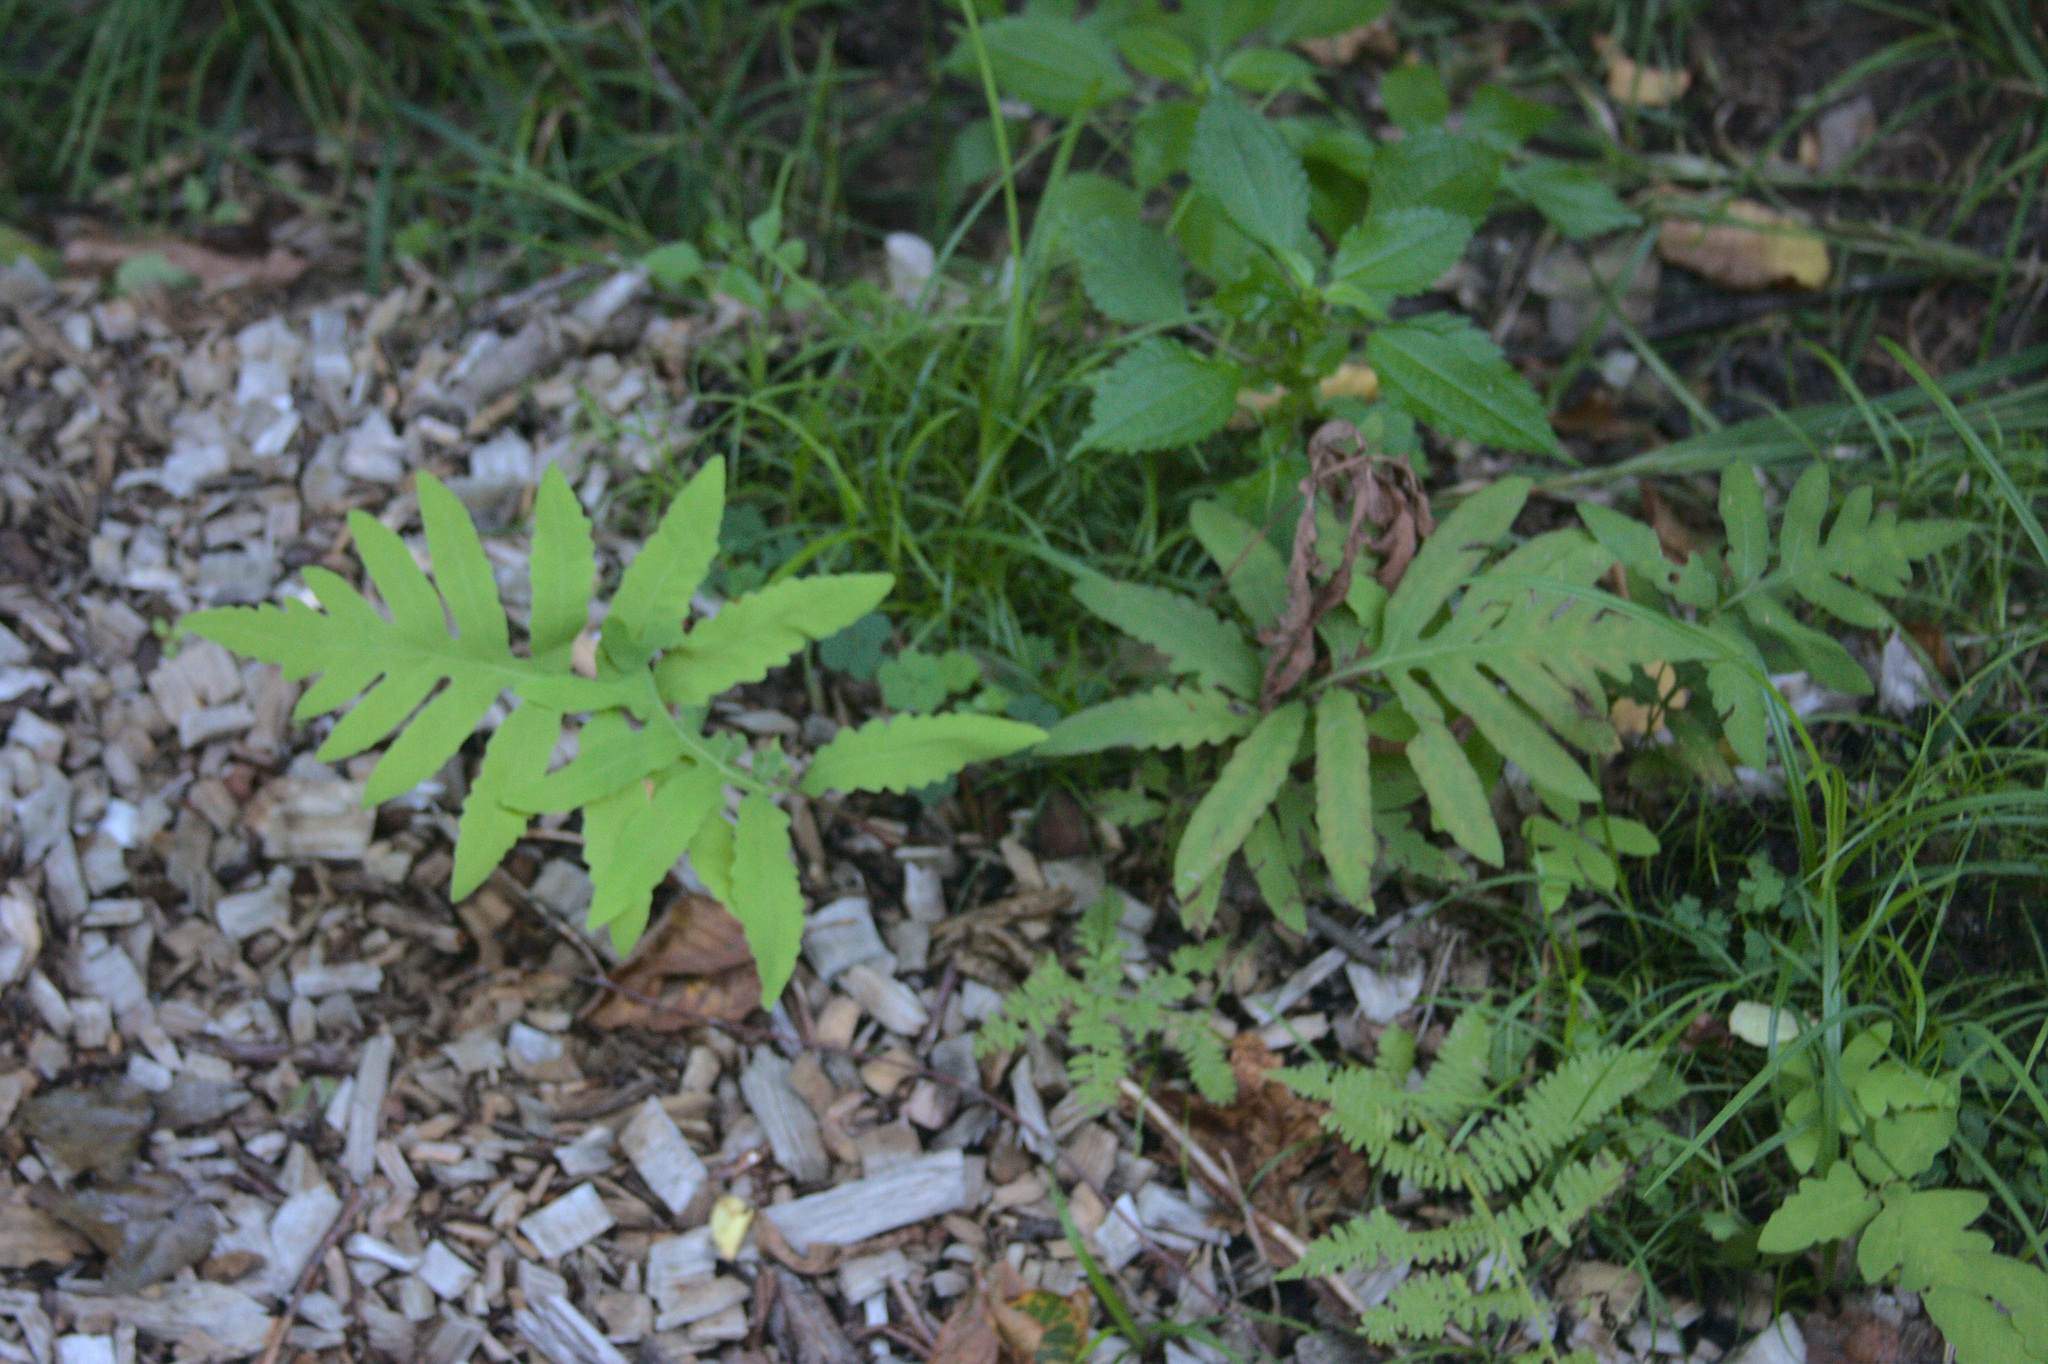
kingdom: Plantae
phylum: Tracheophyta
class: Polypodiopsida
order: Polypodiales
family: Onocleaceae
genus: Onoclea
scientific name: Onoclea sensibilis
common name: Sensitive fern
